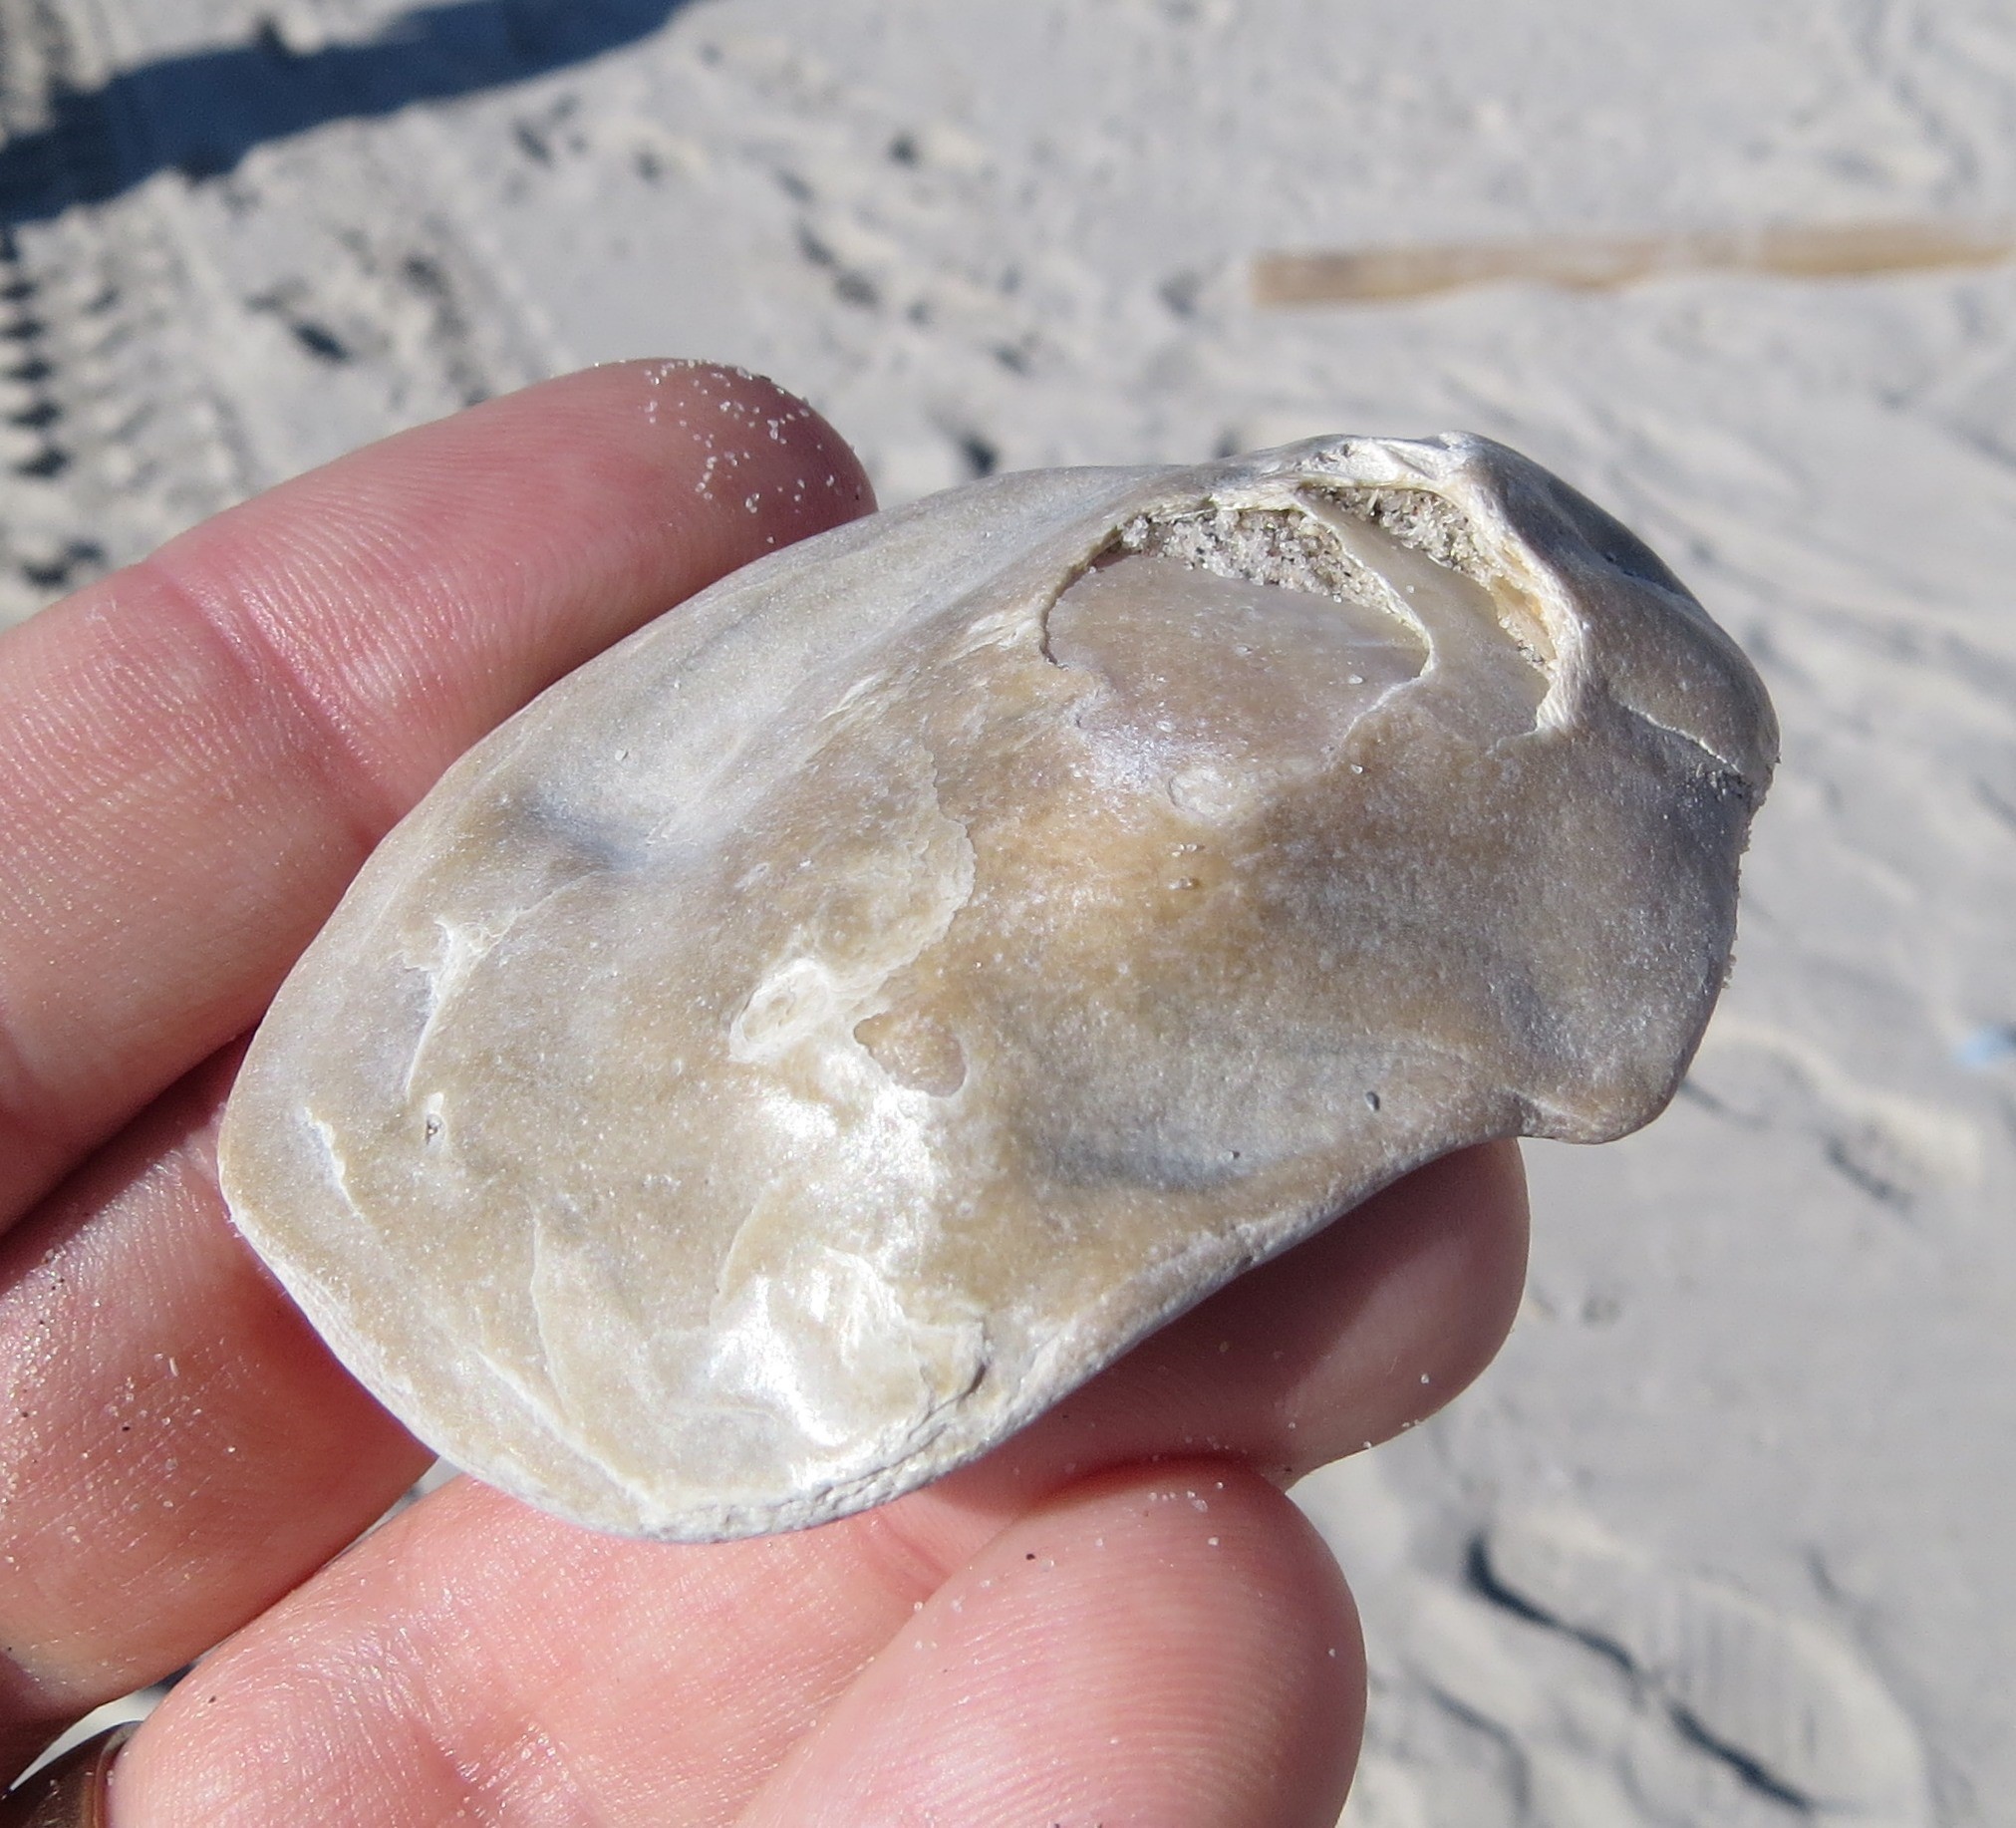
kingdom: Animalia
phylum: Mollusca
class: Bivalvia
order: Ostreida
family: Ostreidae
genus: Ostrea
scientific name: Ostrea edulis
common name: Flat oyster
